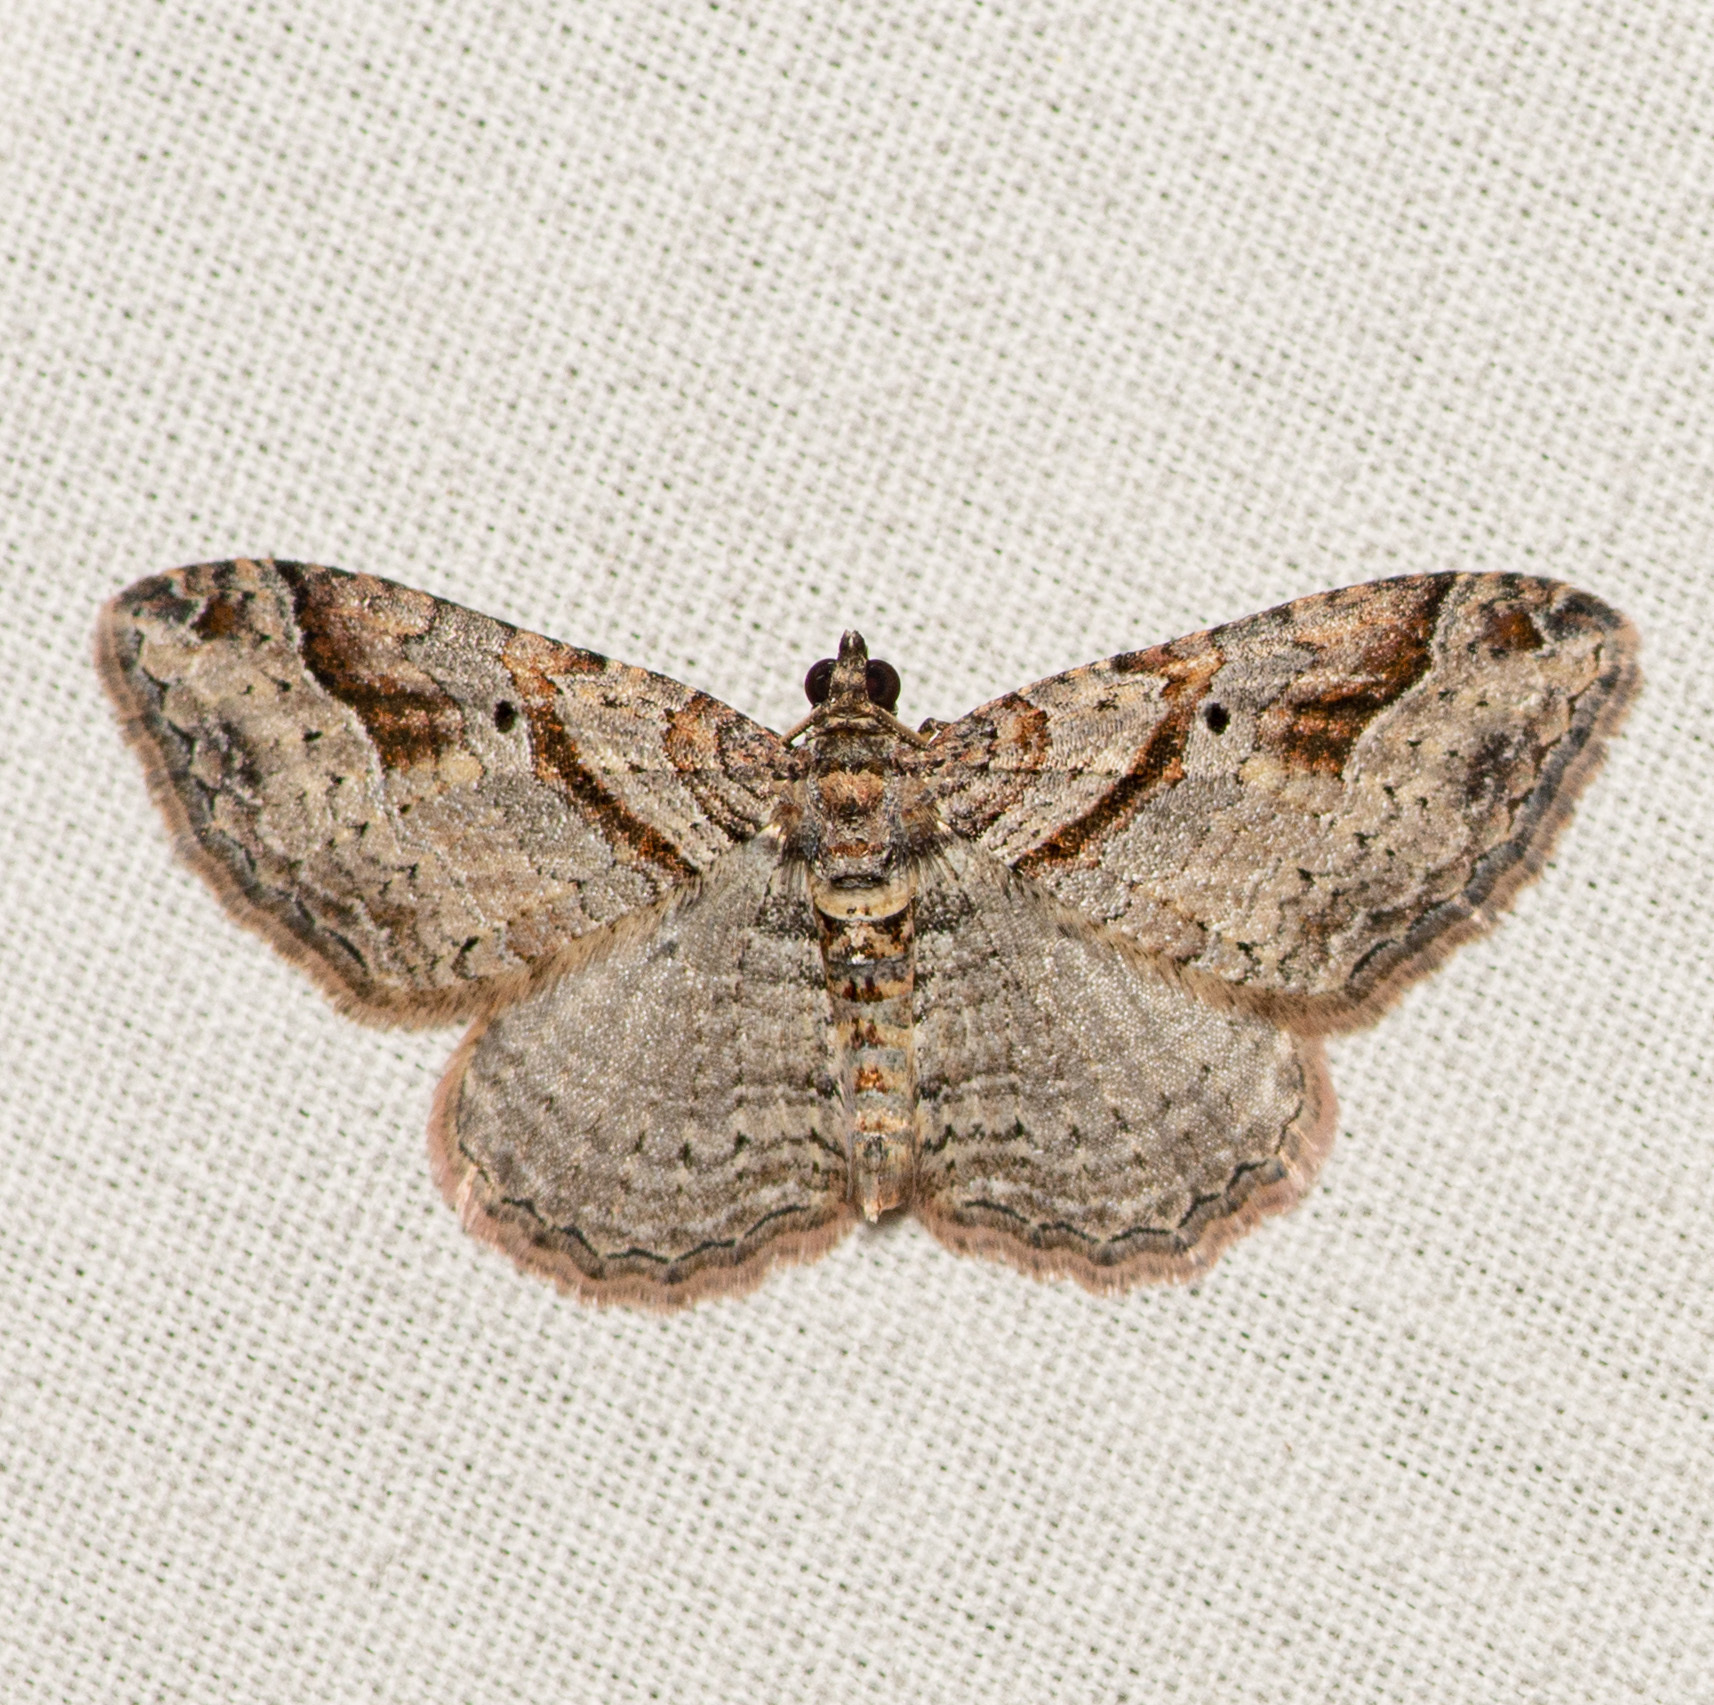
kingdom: Animalia
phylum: Arthropoda
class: Insecta
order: Lepidoptera
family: Geometridae
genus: Costaconvexa
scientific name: Costaconvexa centrostrigaria
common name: Bent-line carpet
